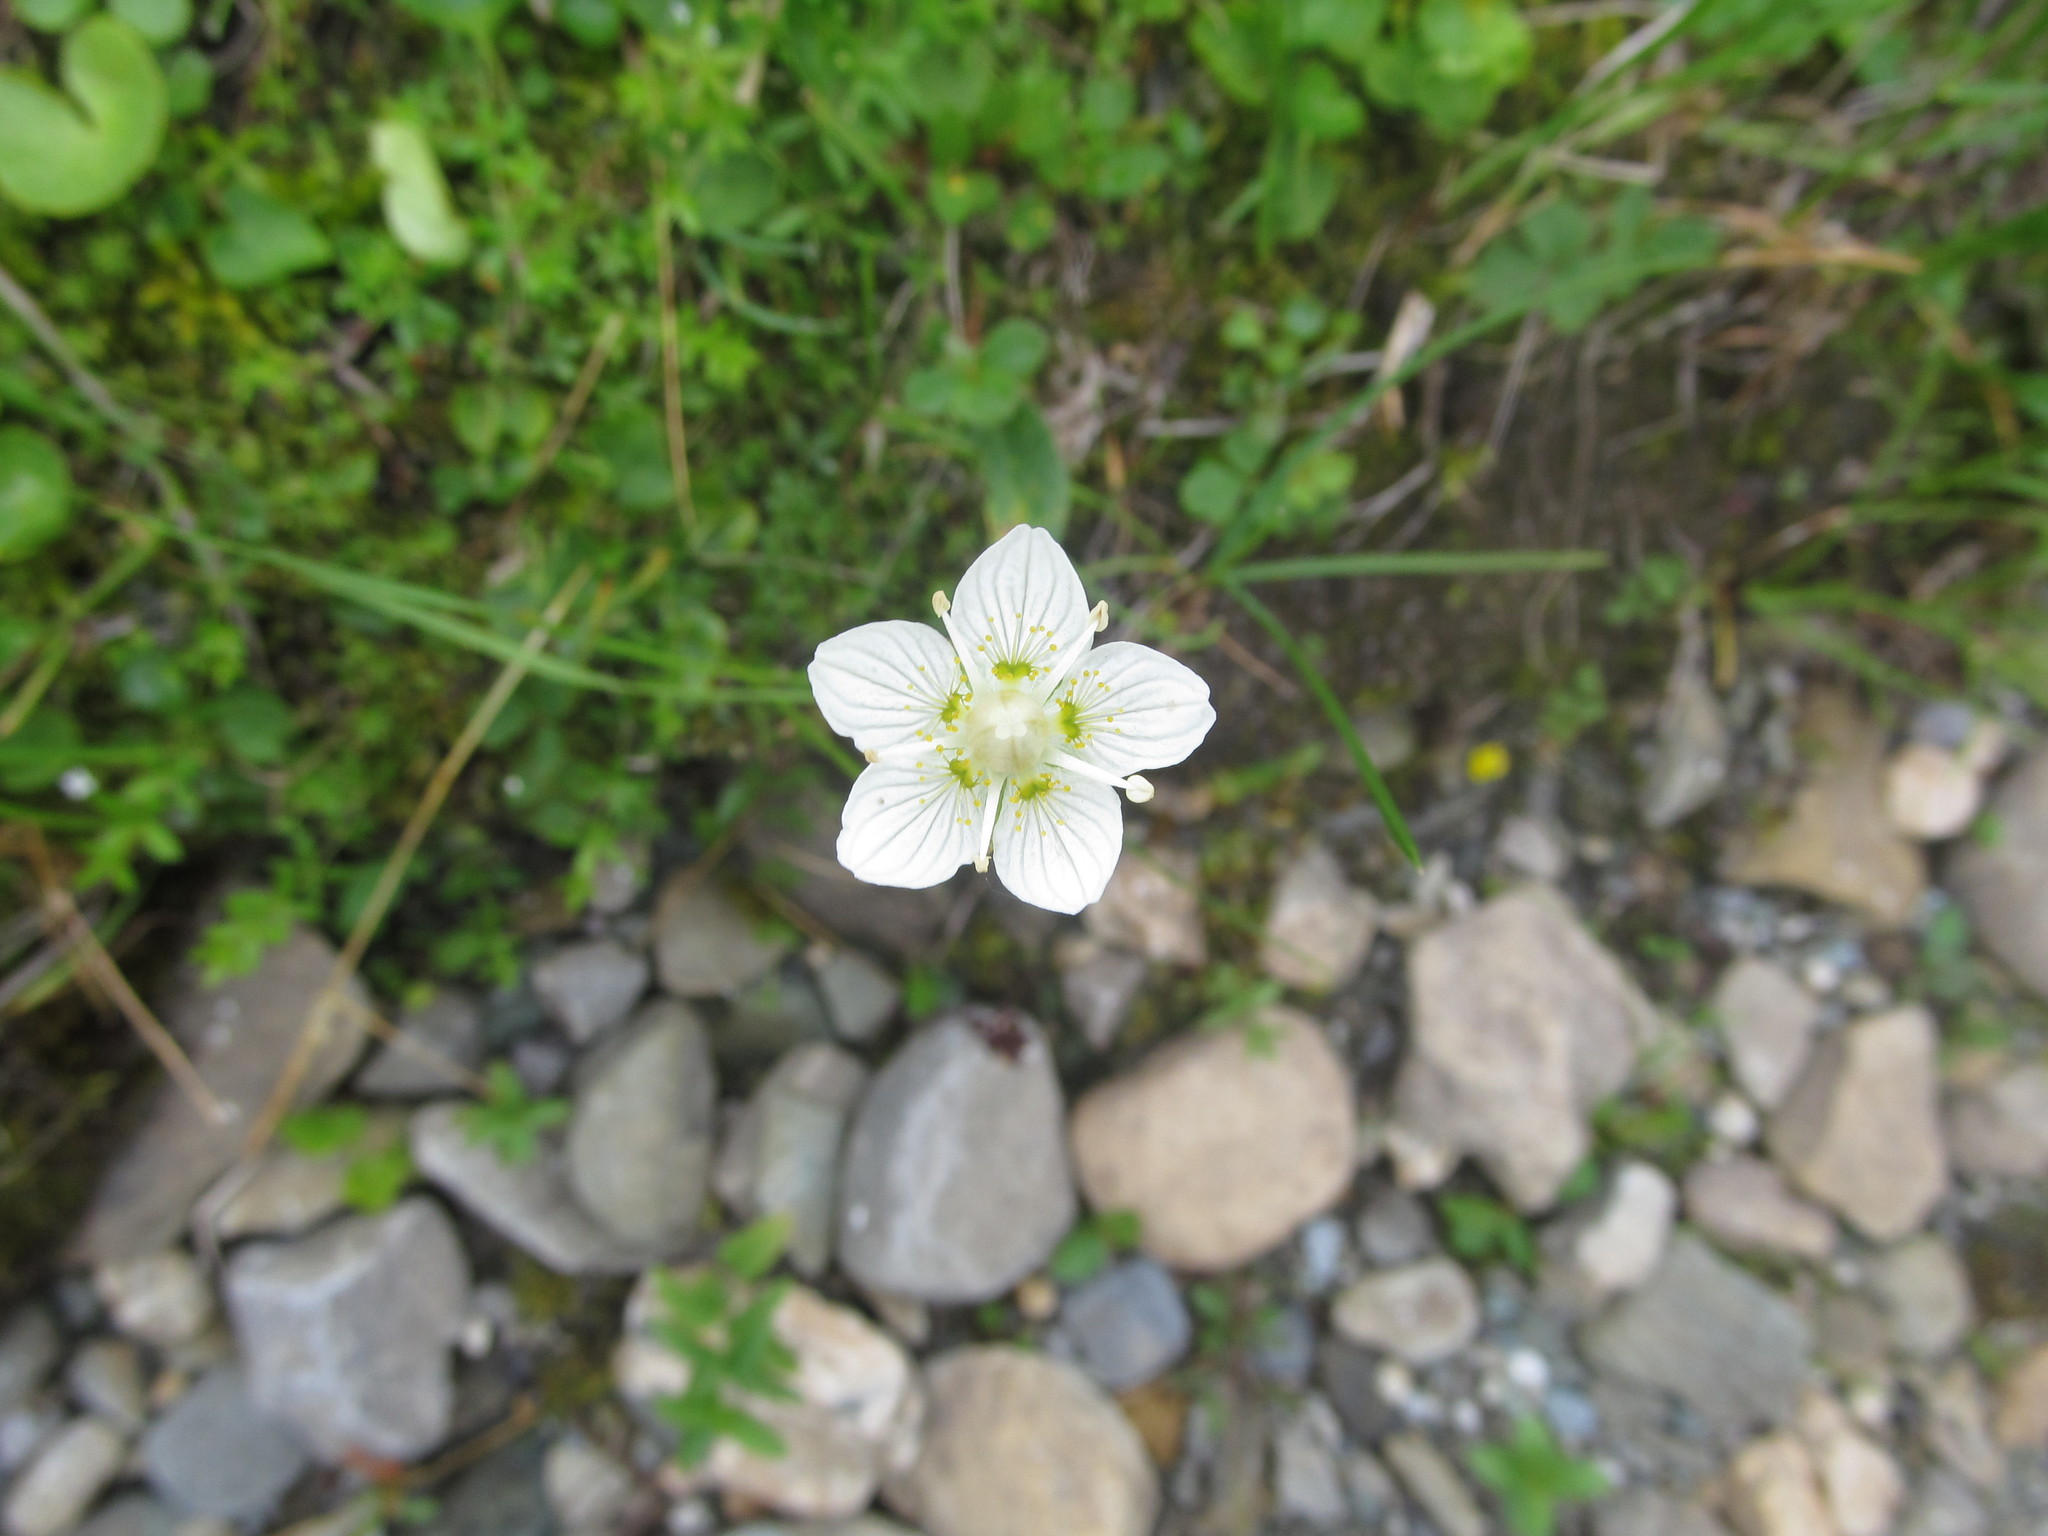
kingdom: Plantae
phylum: Tracheophyta
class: Magnoliopsida
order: Celastrales
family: Parnassiaceae
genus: Parnassia
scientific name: Parnassia palustris
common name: Grass-of-parnassus
